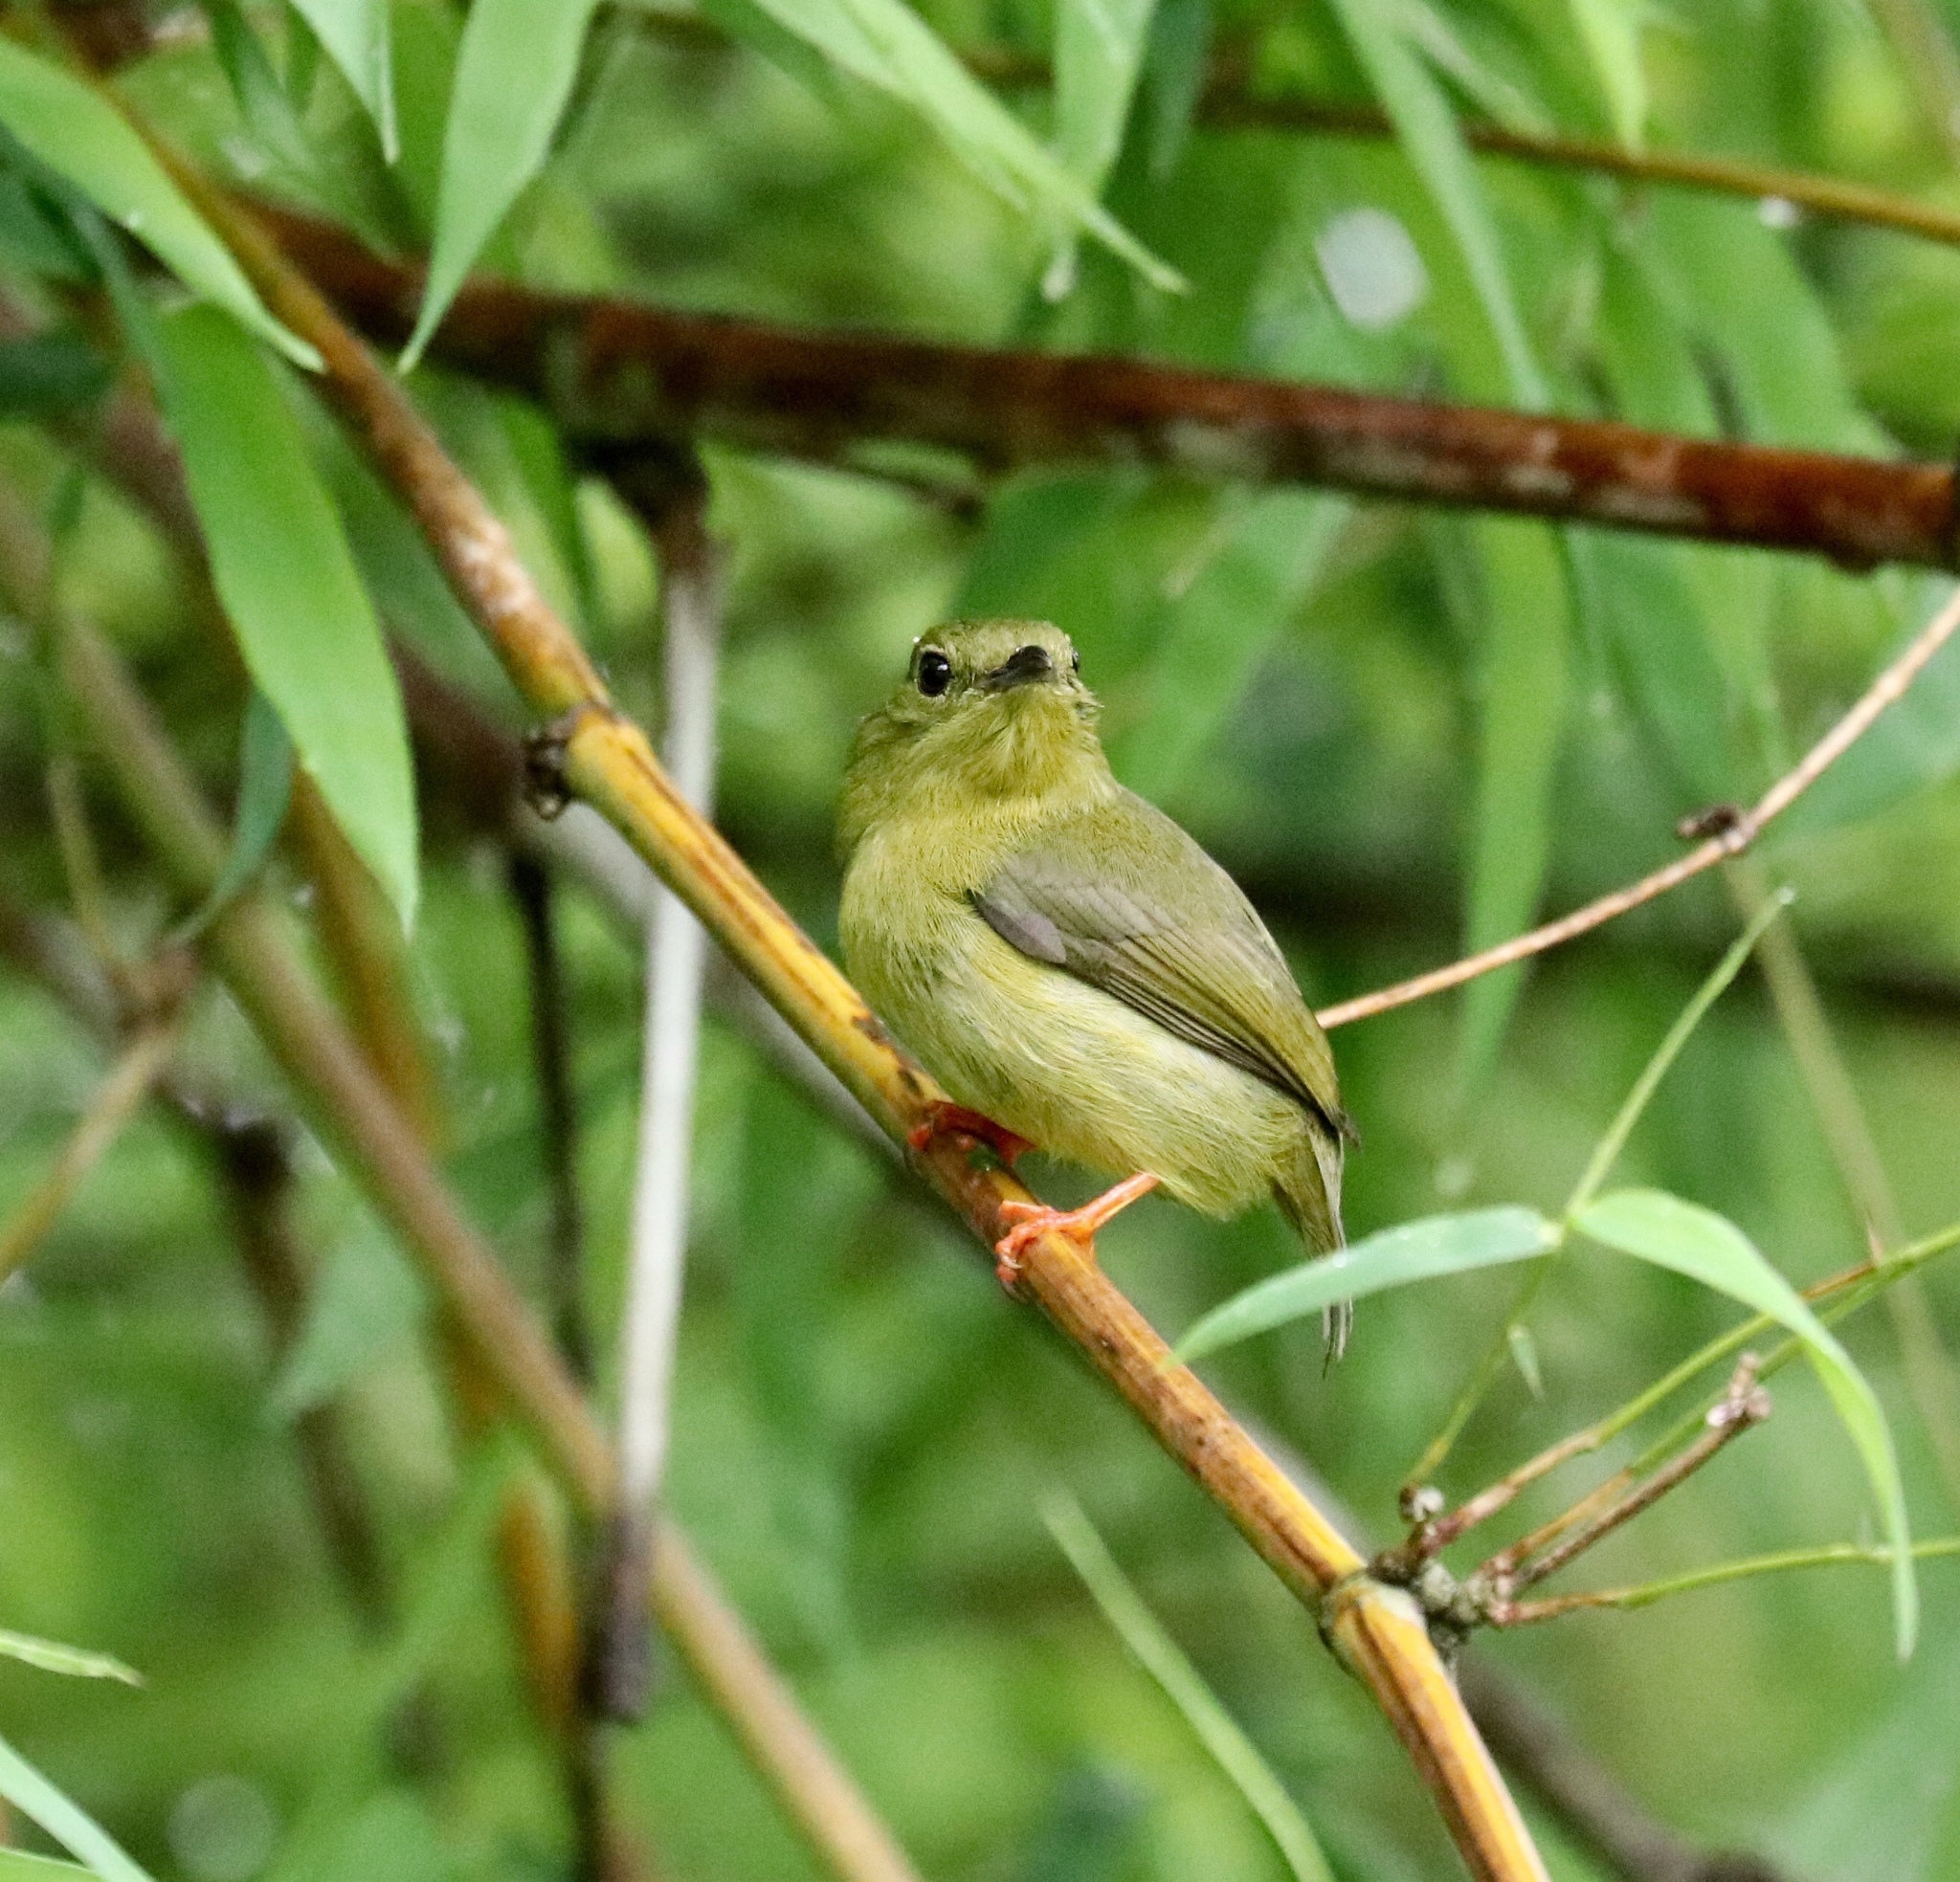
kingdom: Animalia
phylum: Chordata
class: Aves
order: Passeriformes
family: Pipridae
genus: Manacus
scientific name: Manacus vitellinus
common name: Golden-collared manakin
